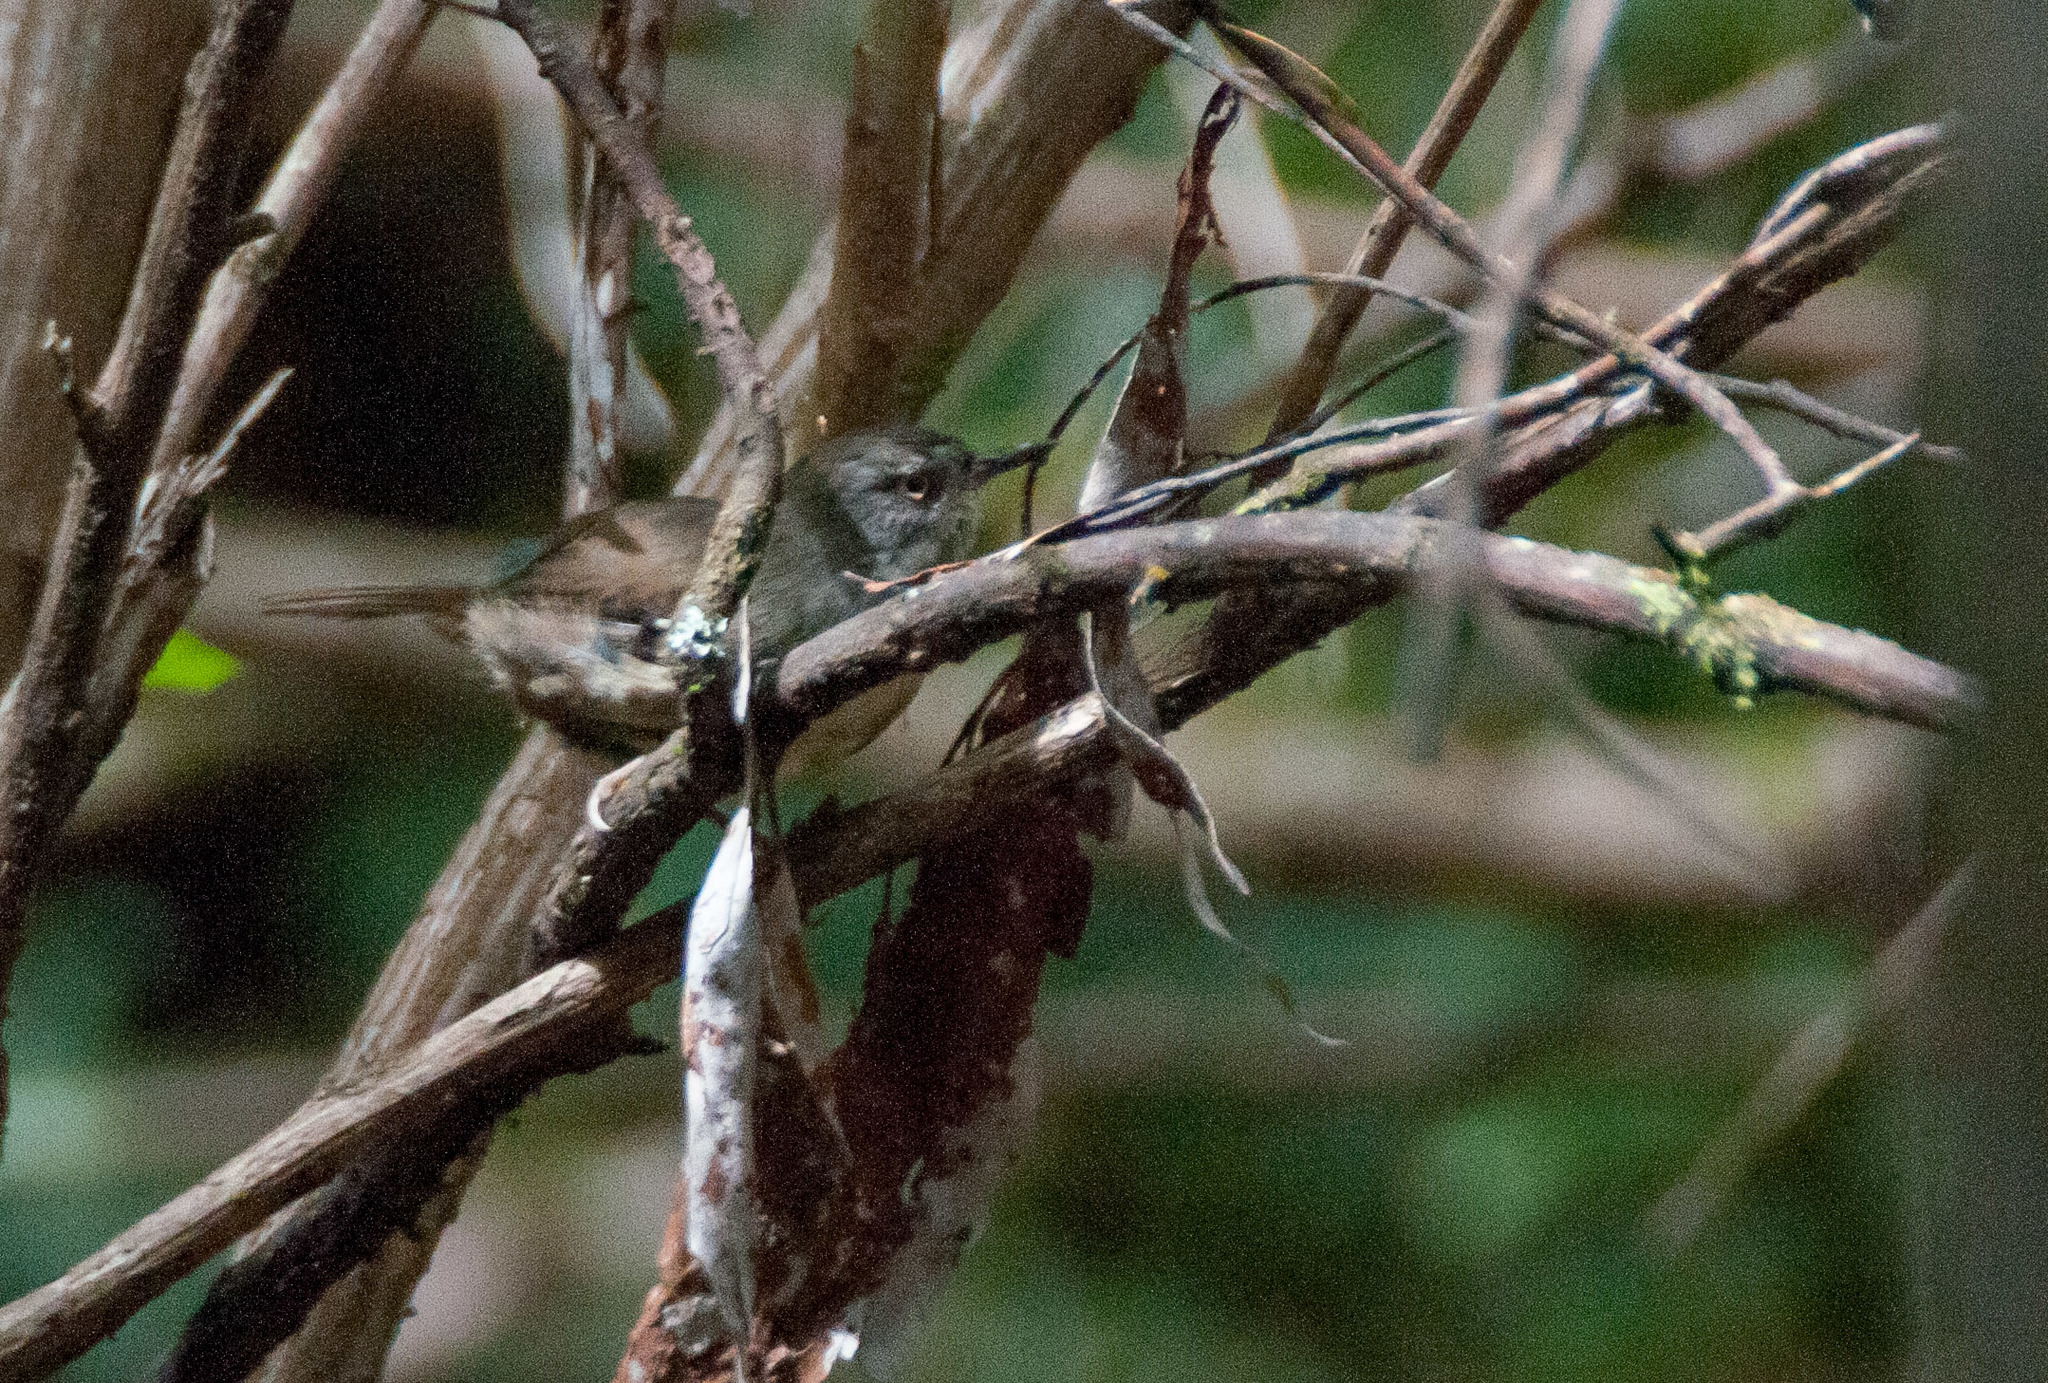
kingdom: Animalia
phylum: Chordata
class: Aves
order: Passeriformes
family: Acanthizidae
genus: Sericornis
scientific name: Sericornis frontalis
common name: White-browed scrubwren
